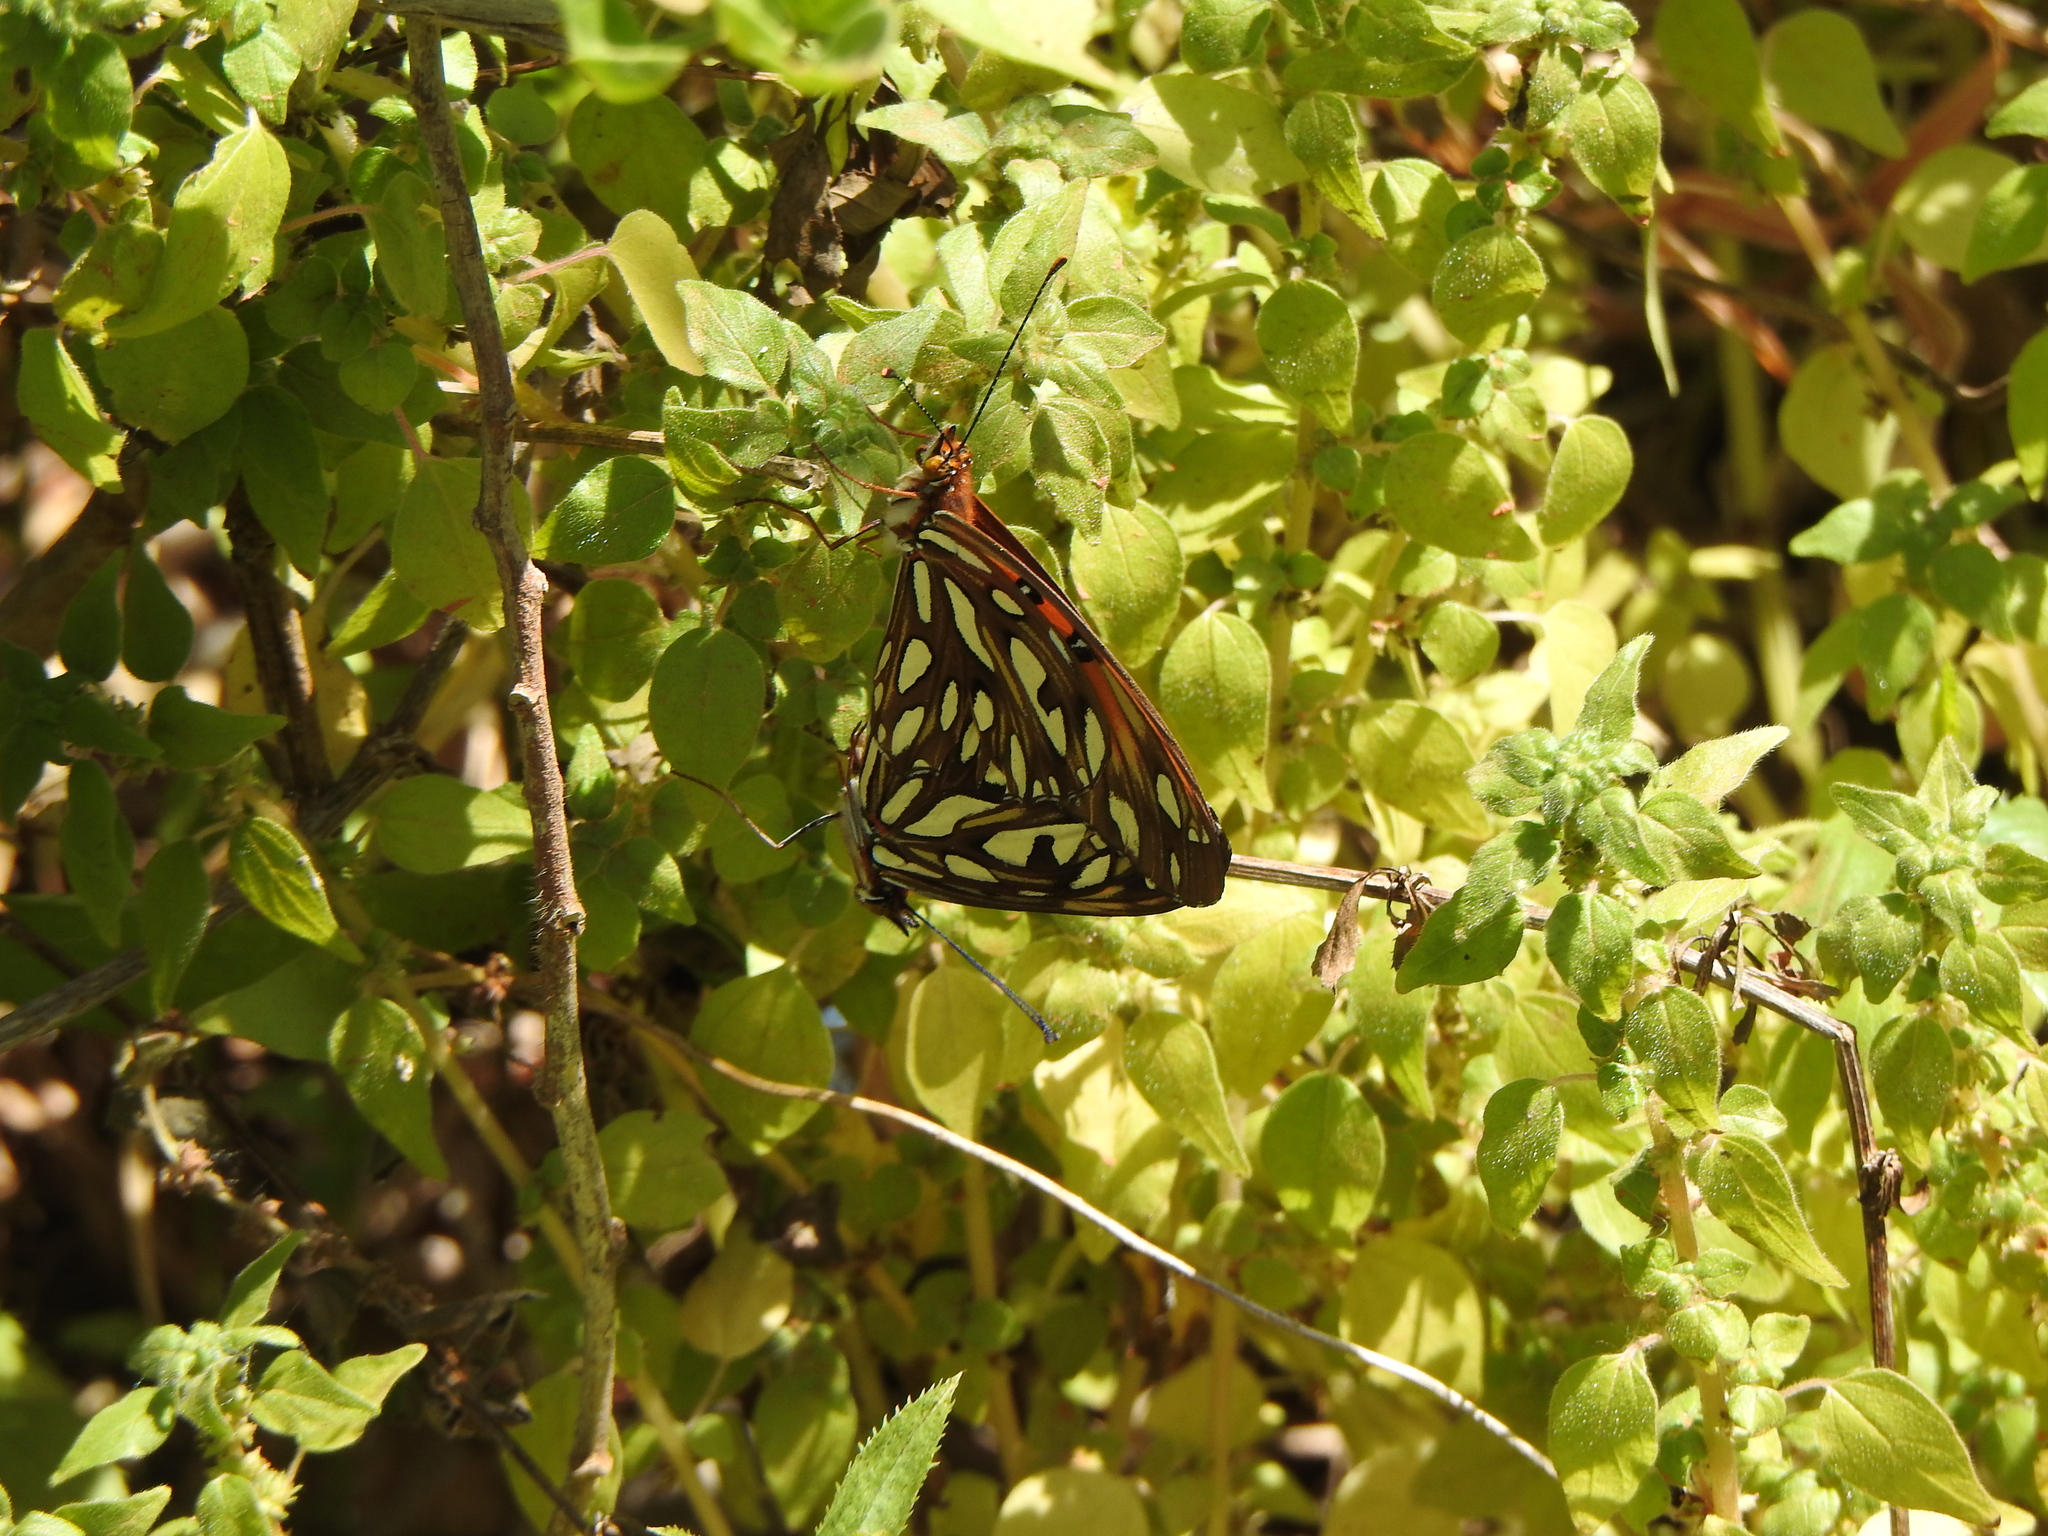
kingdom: Animalia
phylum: Arthropoda
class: Insecta
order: Lepidoptera
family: Nymphalidae
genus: Dione
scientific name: Dione vanillae
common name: Gulf fritillary
